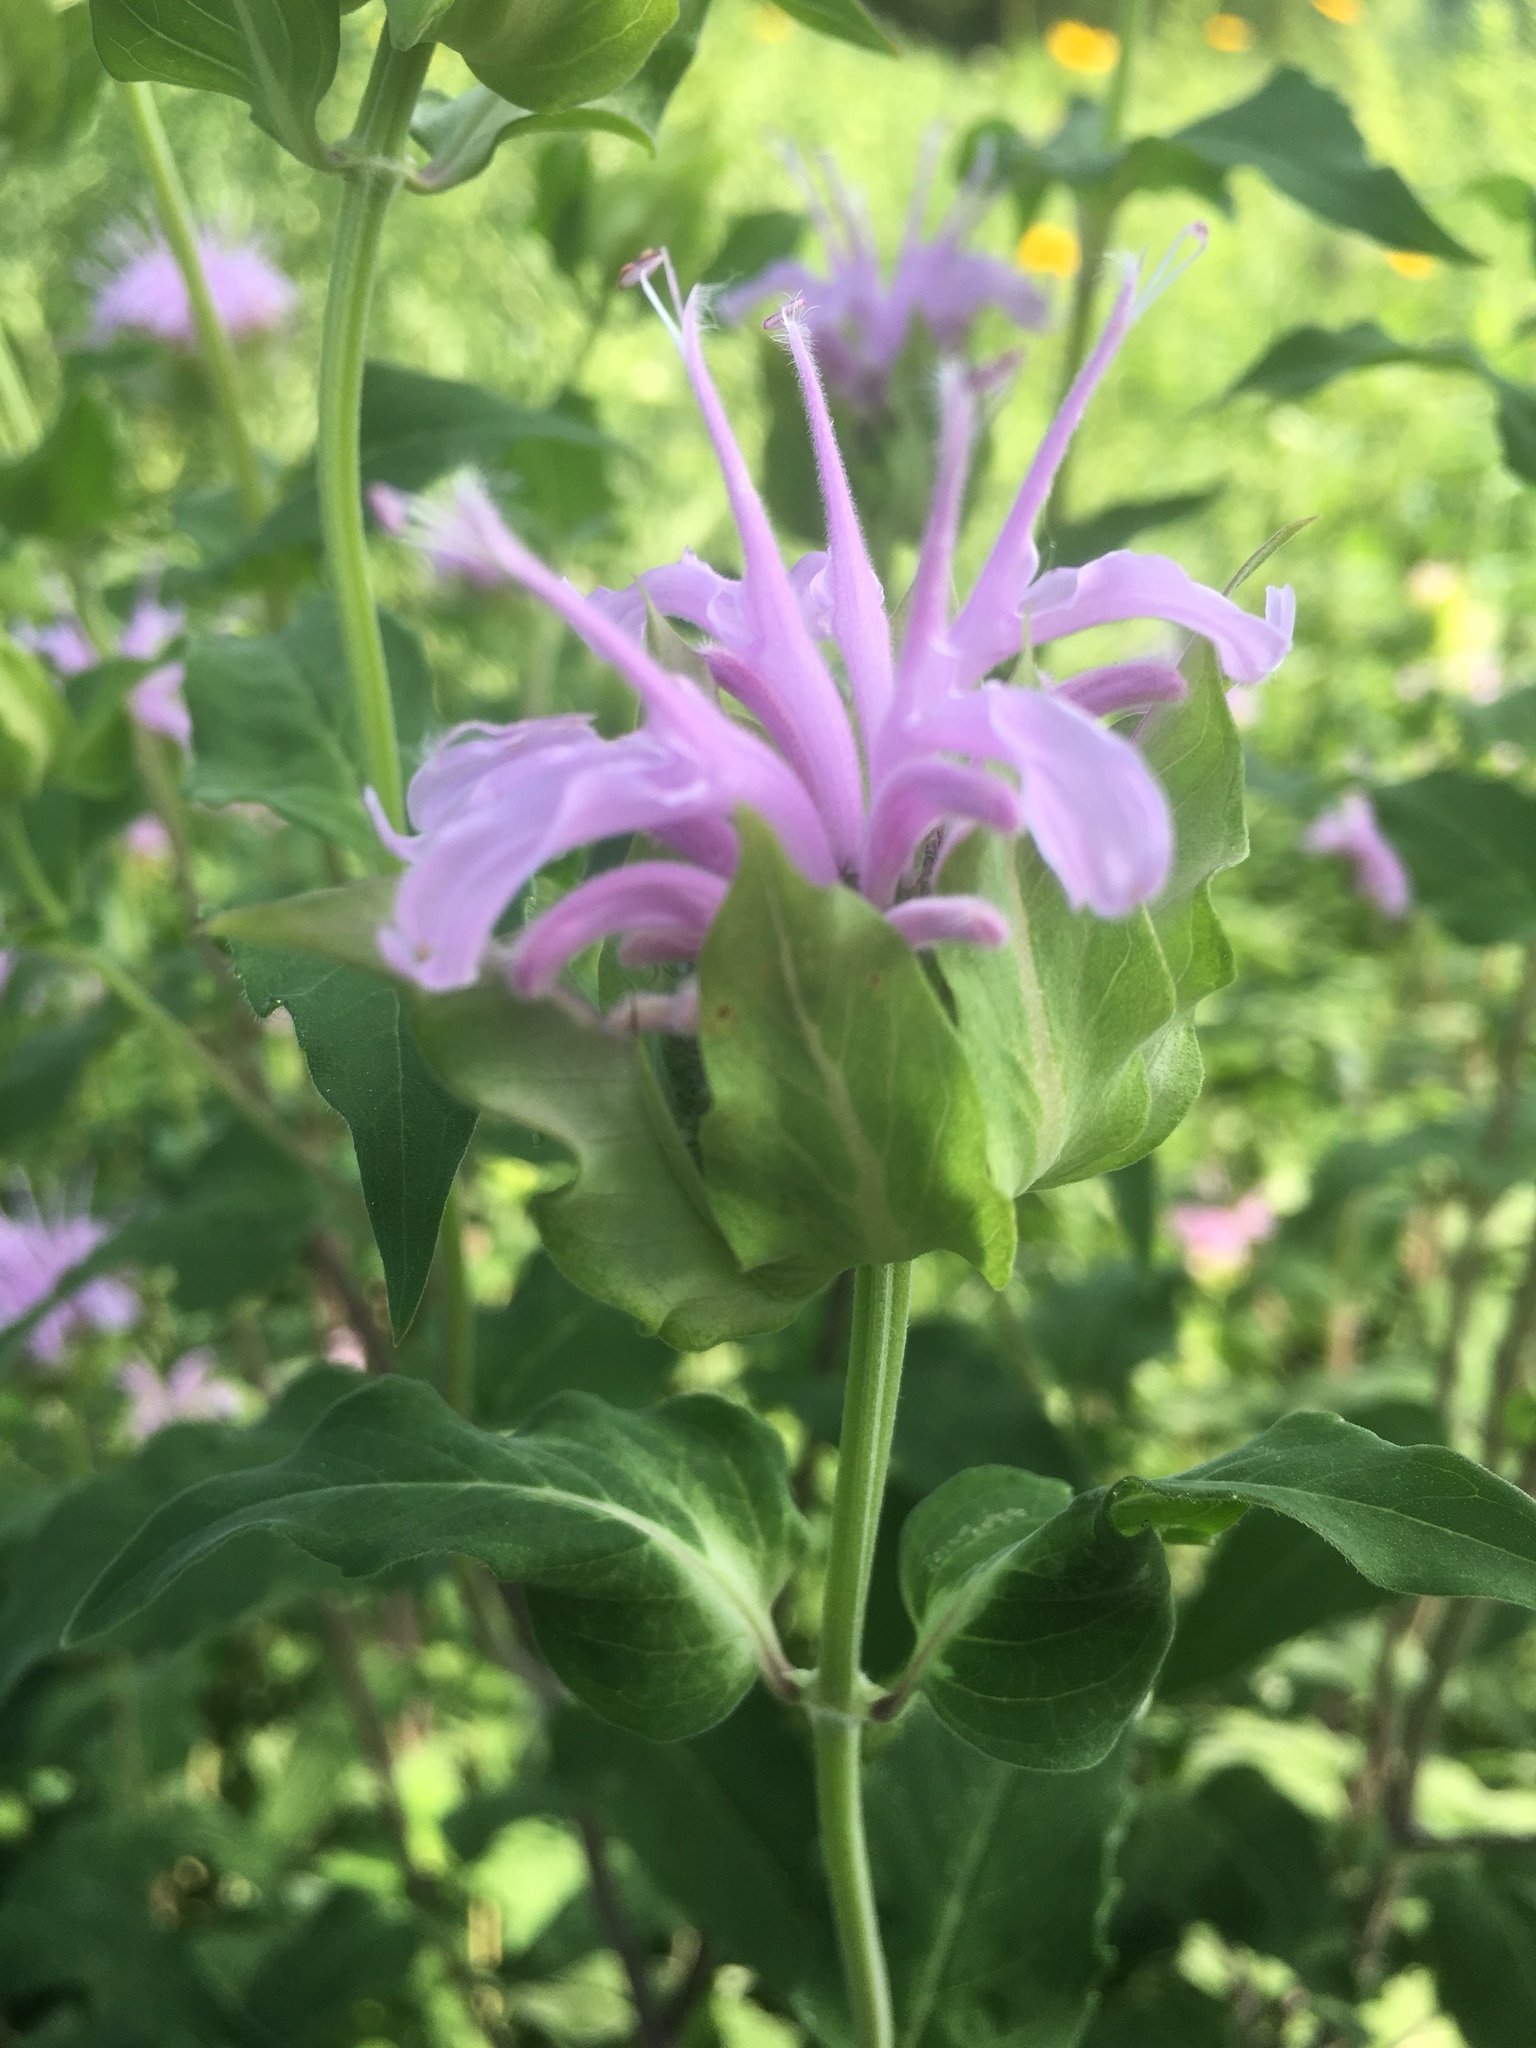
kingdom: Plantae
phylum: Tracheophyta
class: Magnoliopsida
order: Lamiales
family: Lamiaceae
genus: Monarda
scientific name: Monarda fistulosa
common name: Purple beebalm
